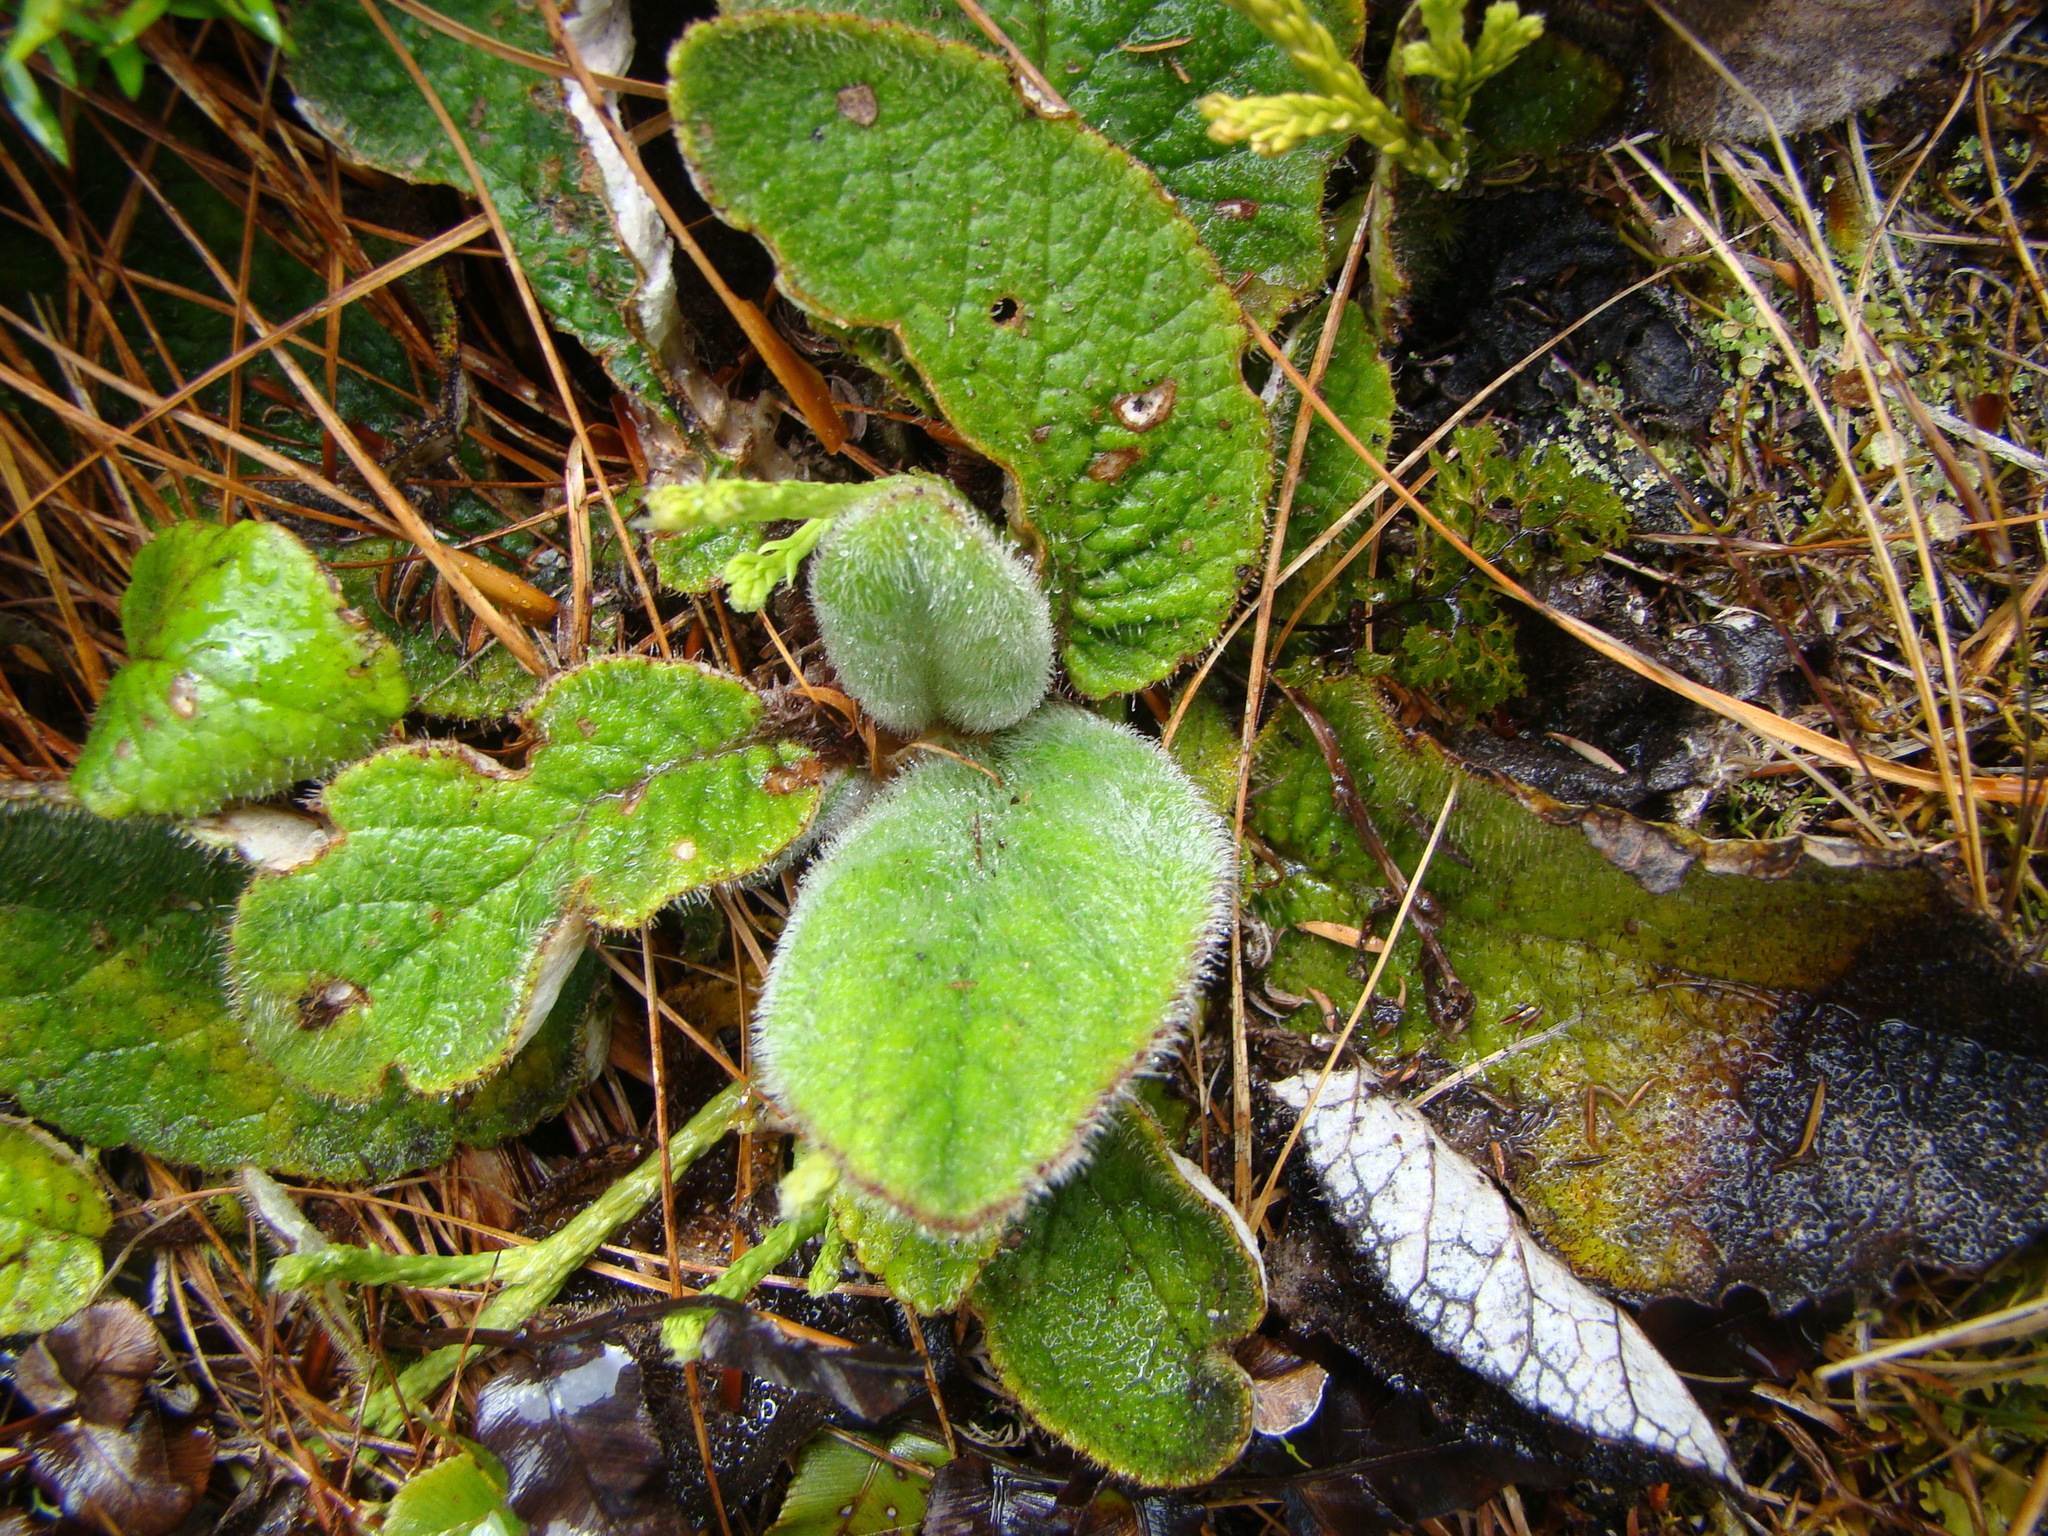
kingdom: Plantae
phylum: Tracheophyta
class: Magnoliopsida
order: Asterales
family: Asteraceae
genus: Brachyglottis
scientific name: Brachyglottis lagopus
